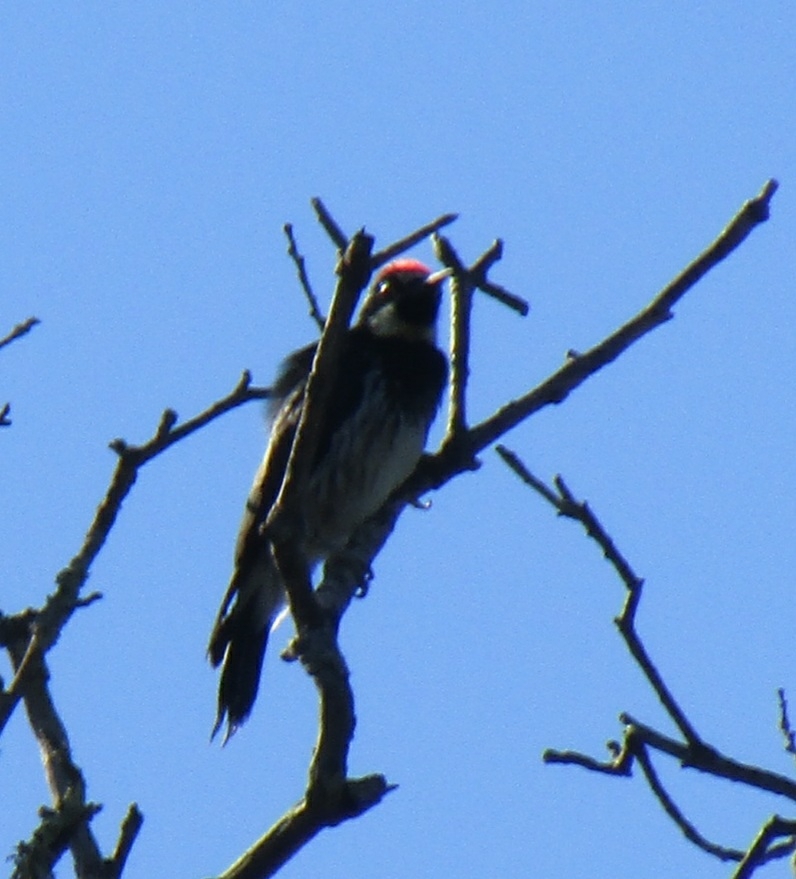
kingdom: Animalia
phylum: Chordata
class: Aves
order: Piciformes
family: Picidae
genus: Melanerpes
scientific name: Melanerpes formicivorus
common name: Acorn woodpecker
